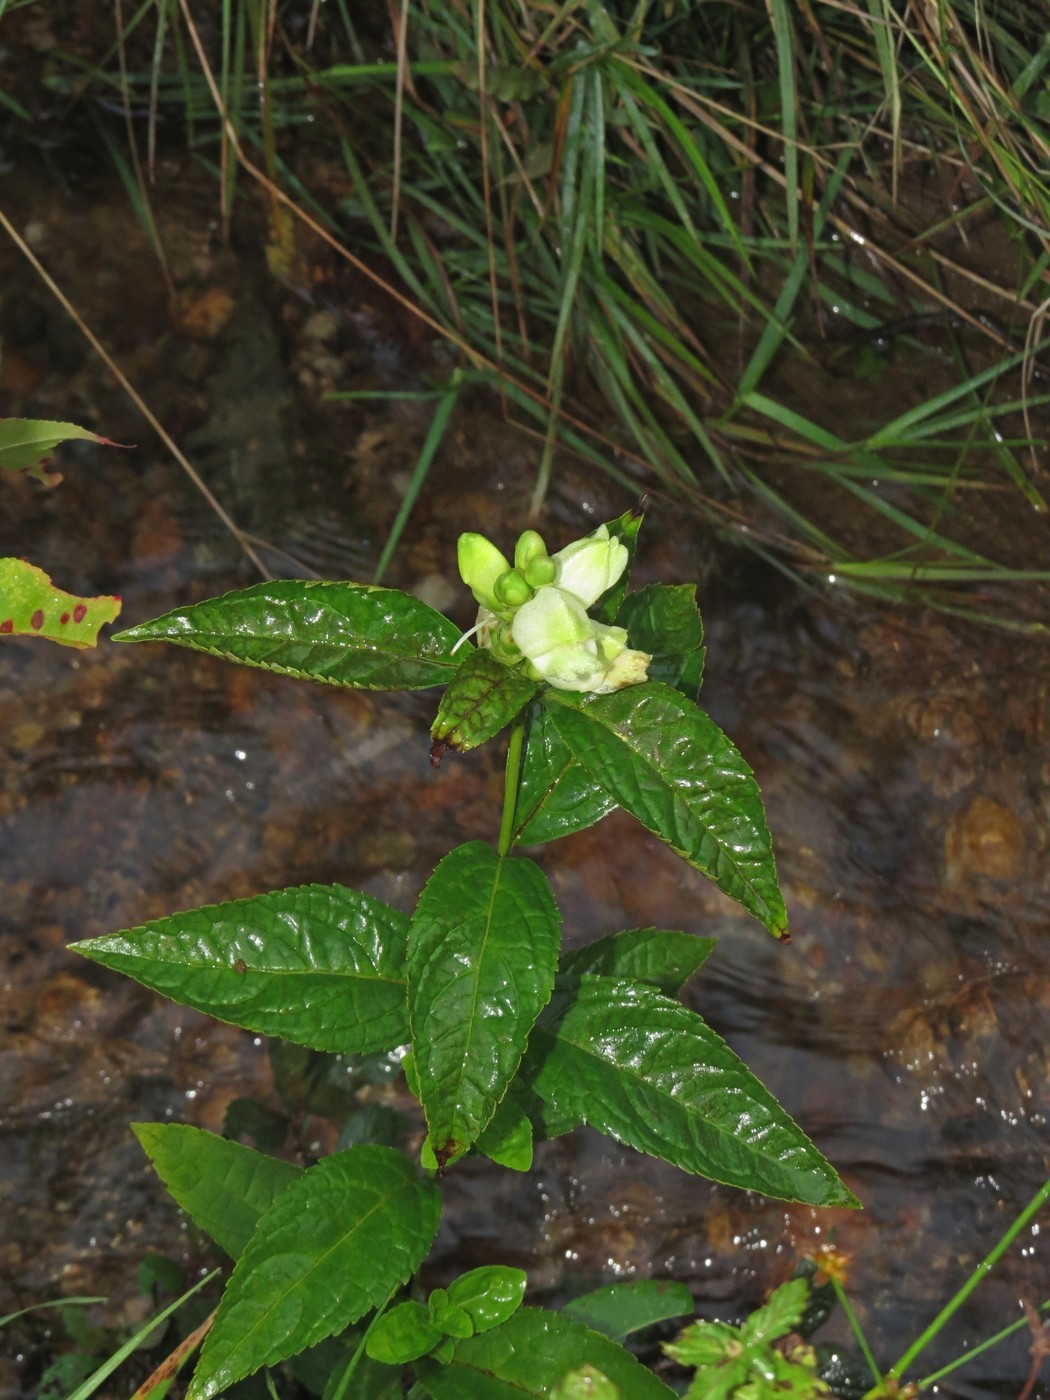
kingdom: Plantae
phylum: Tracheophyta
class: Magnoliopsida
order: Lamiales
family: Plantaginaceae
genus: Chelone
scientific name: Chelone glabra
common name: Snakehead
